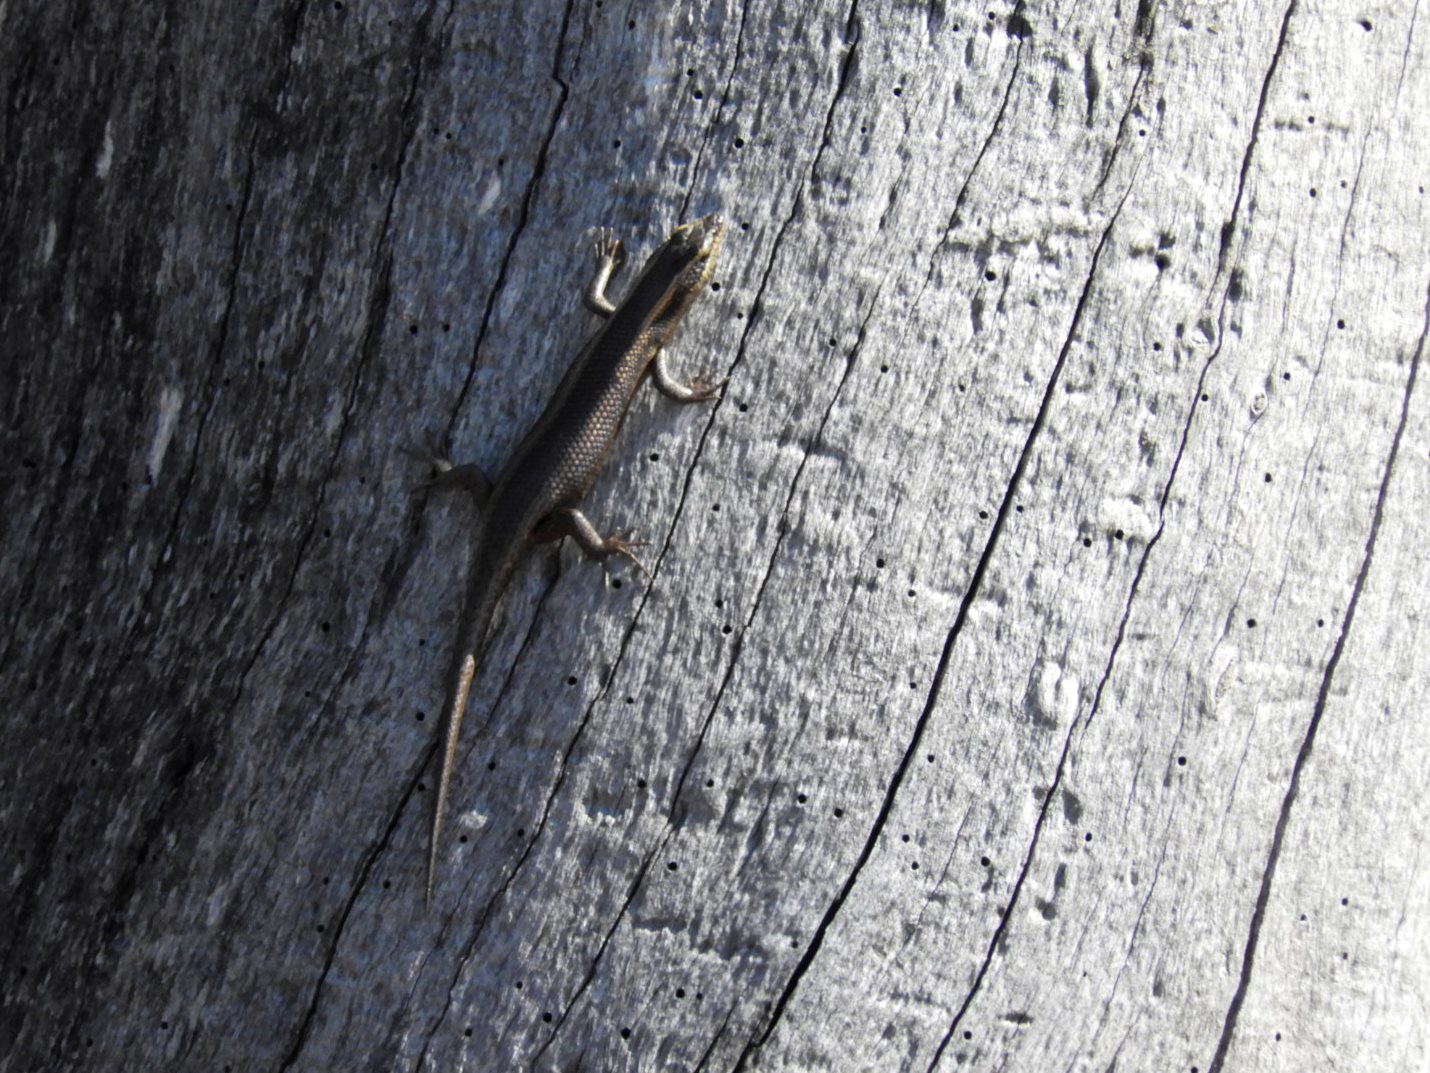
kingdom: Animalia
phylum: Chordata
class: Squamata
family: Scincidae
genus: Trachylepis
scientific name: Trachylepis striata
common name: African striped mabuya
